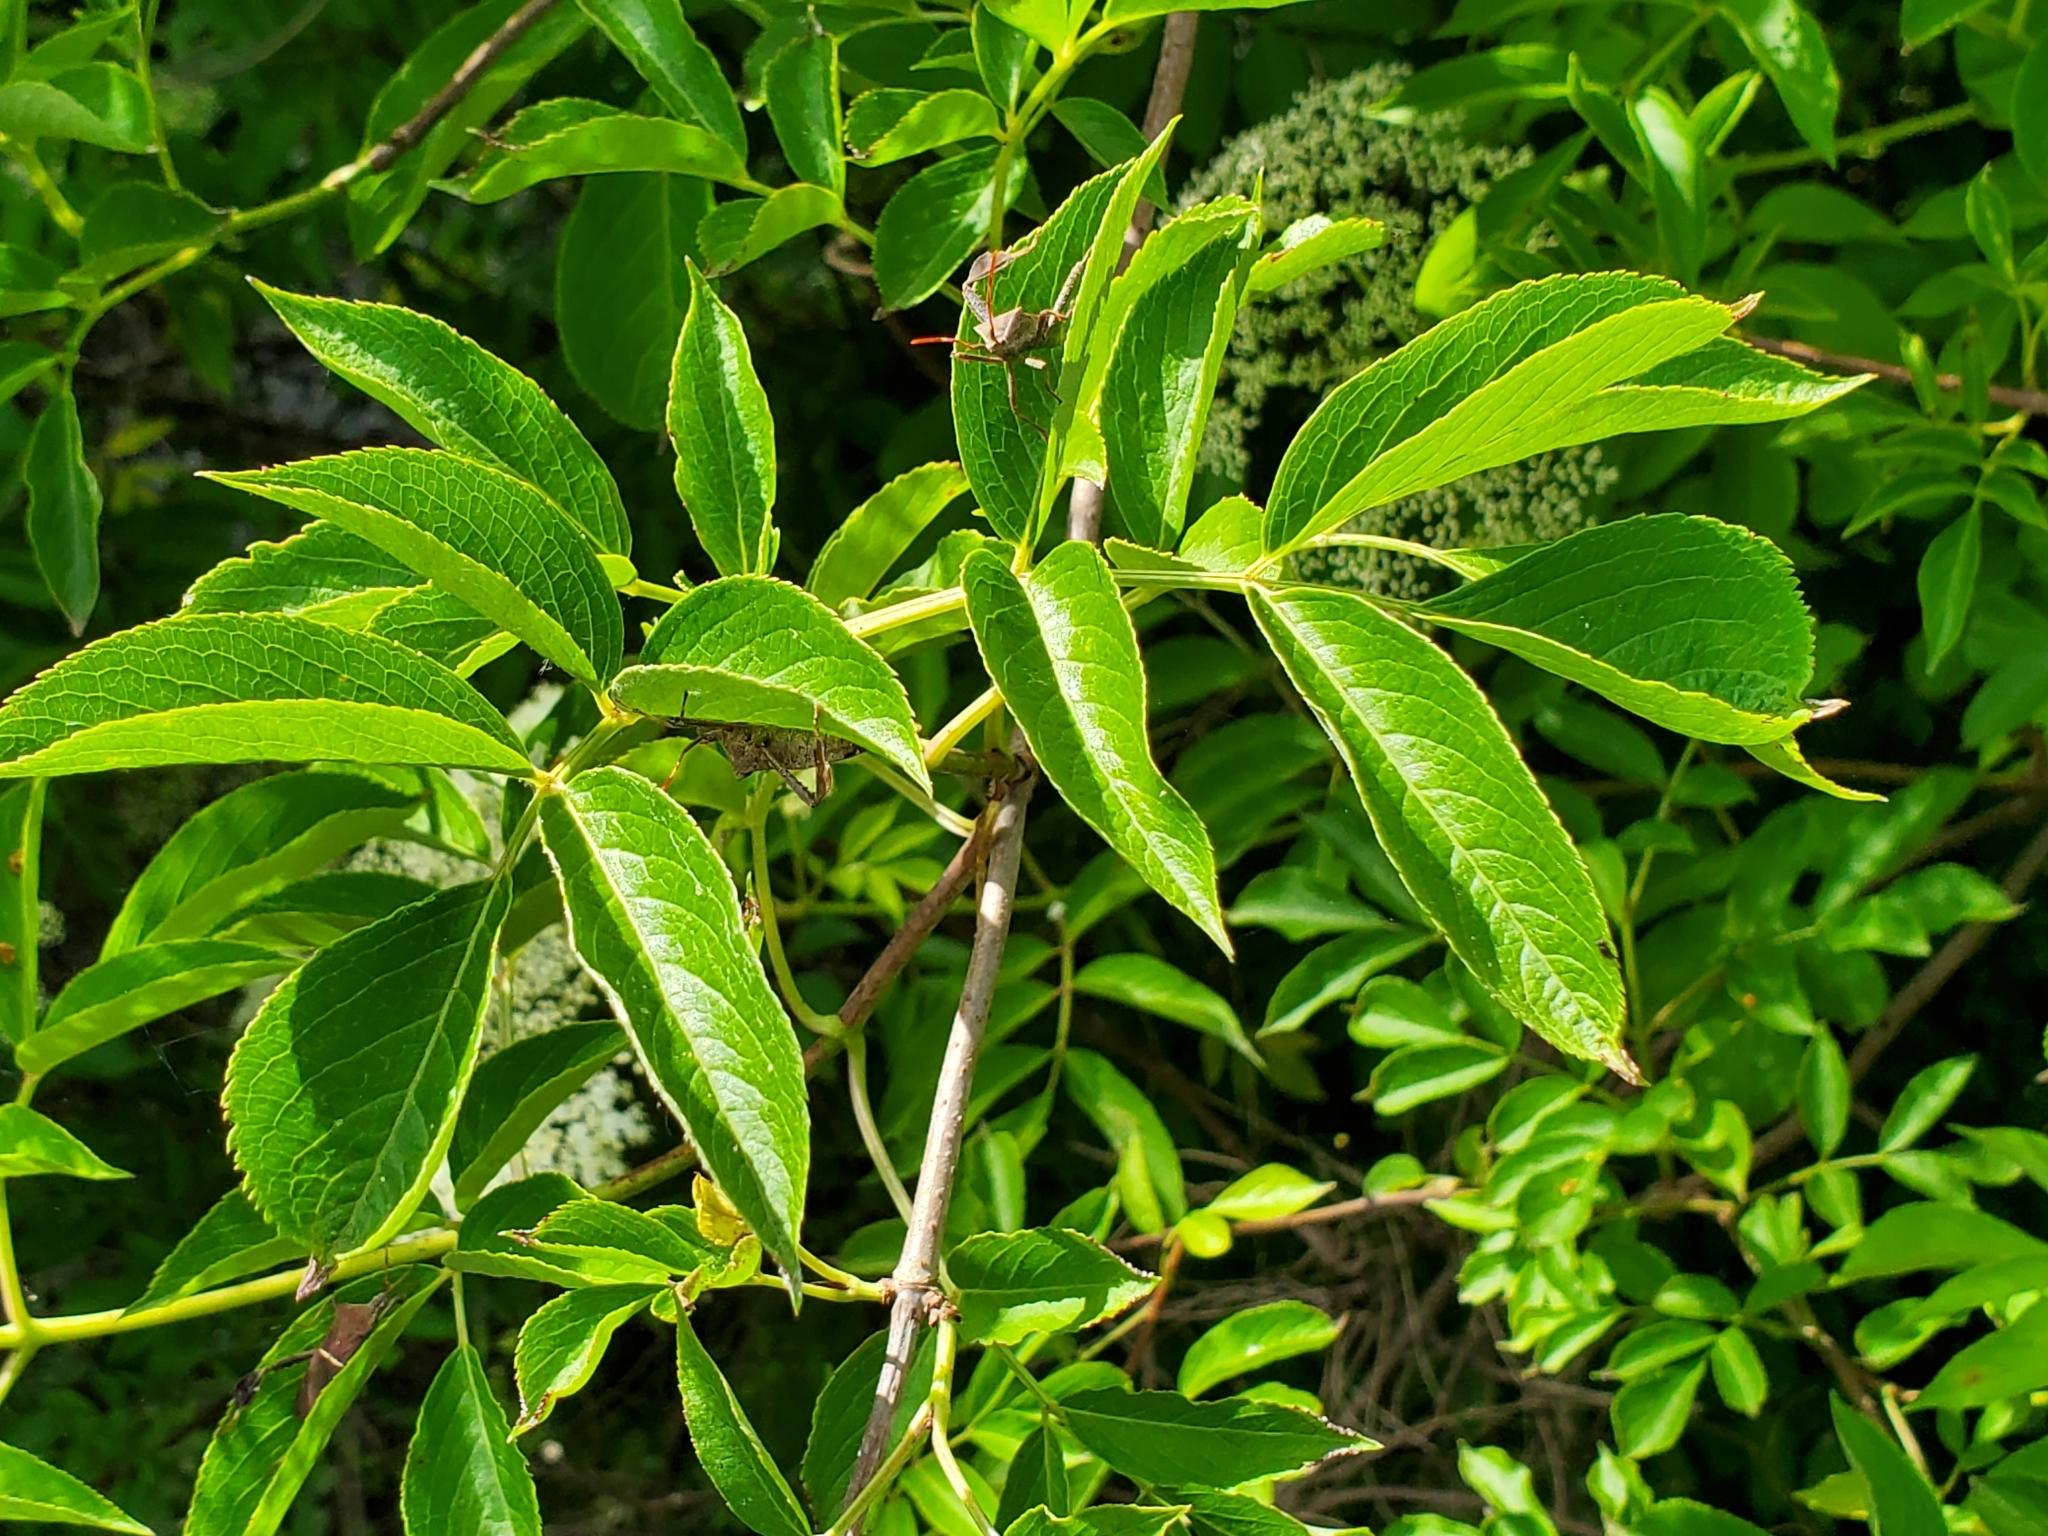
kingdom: Plantae
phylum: Tracheophyta
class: Magnoliopsida
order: Dipsacales
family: Viburnaceae
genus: Sambucus
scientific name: Sambucus canadensis
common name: American elder
